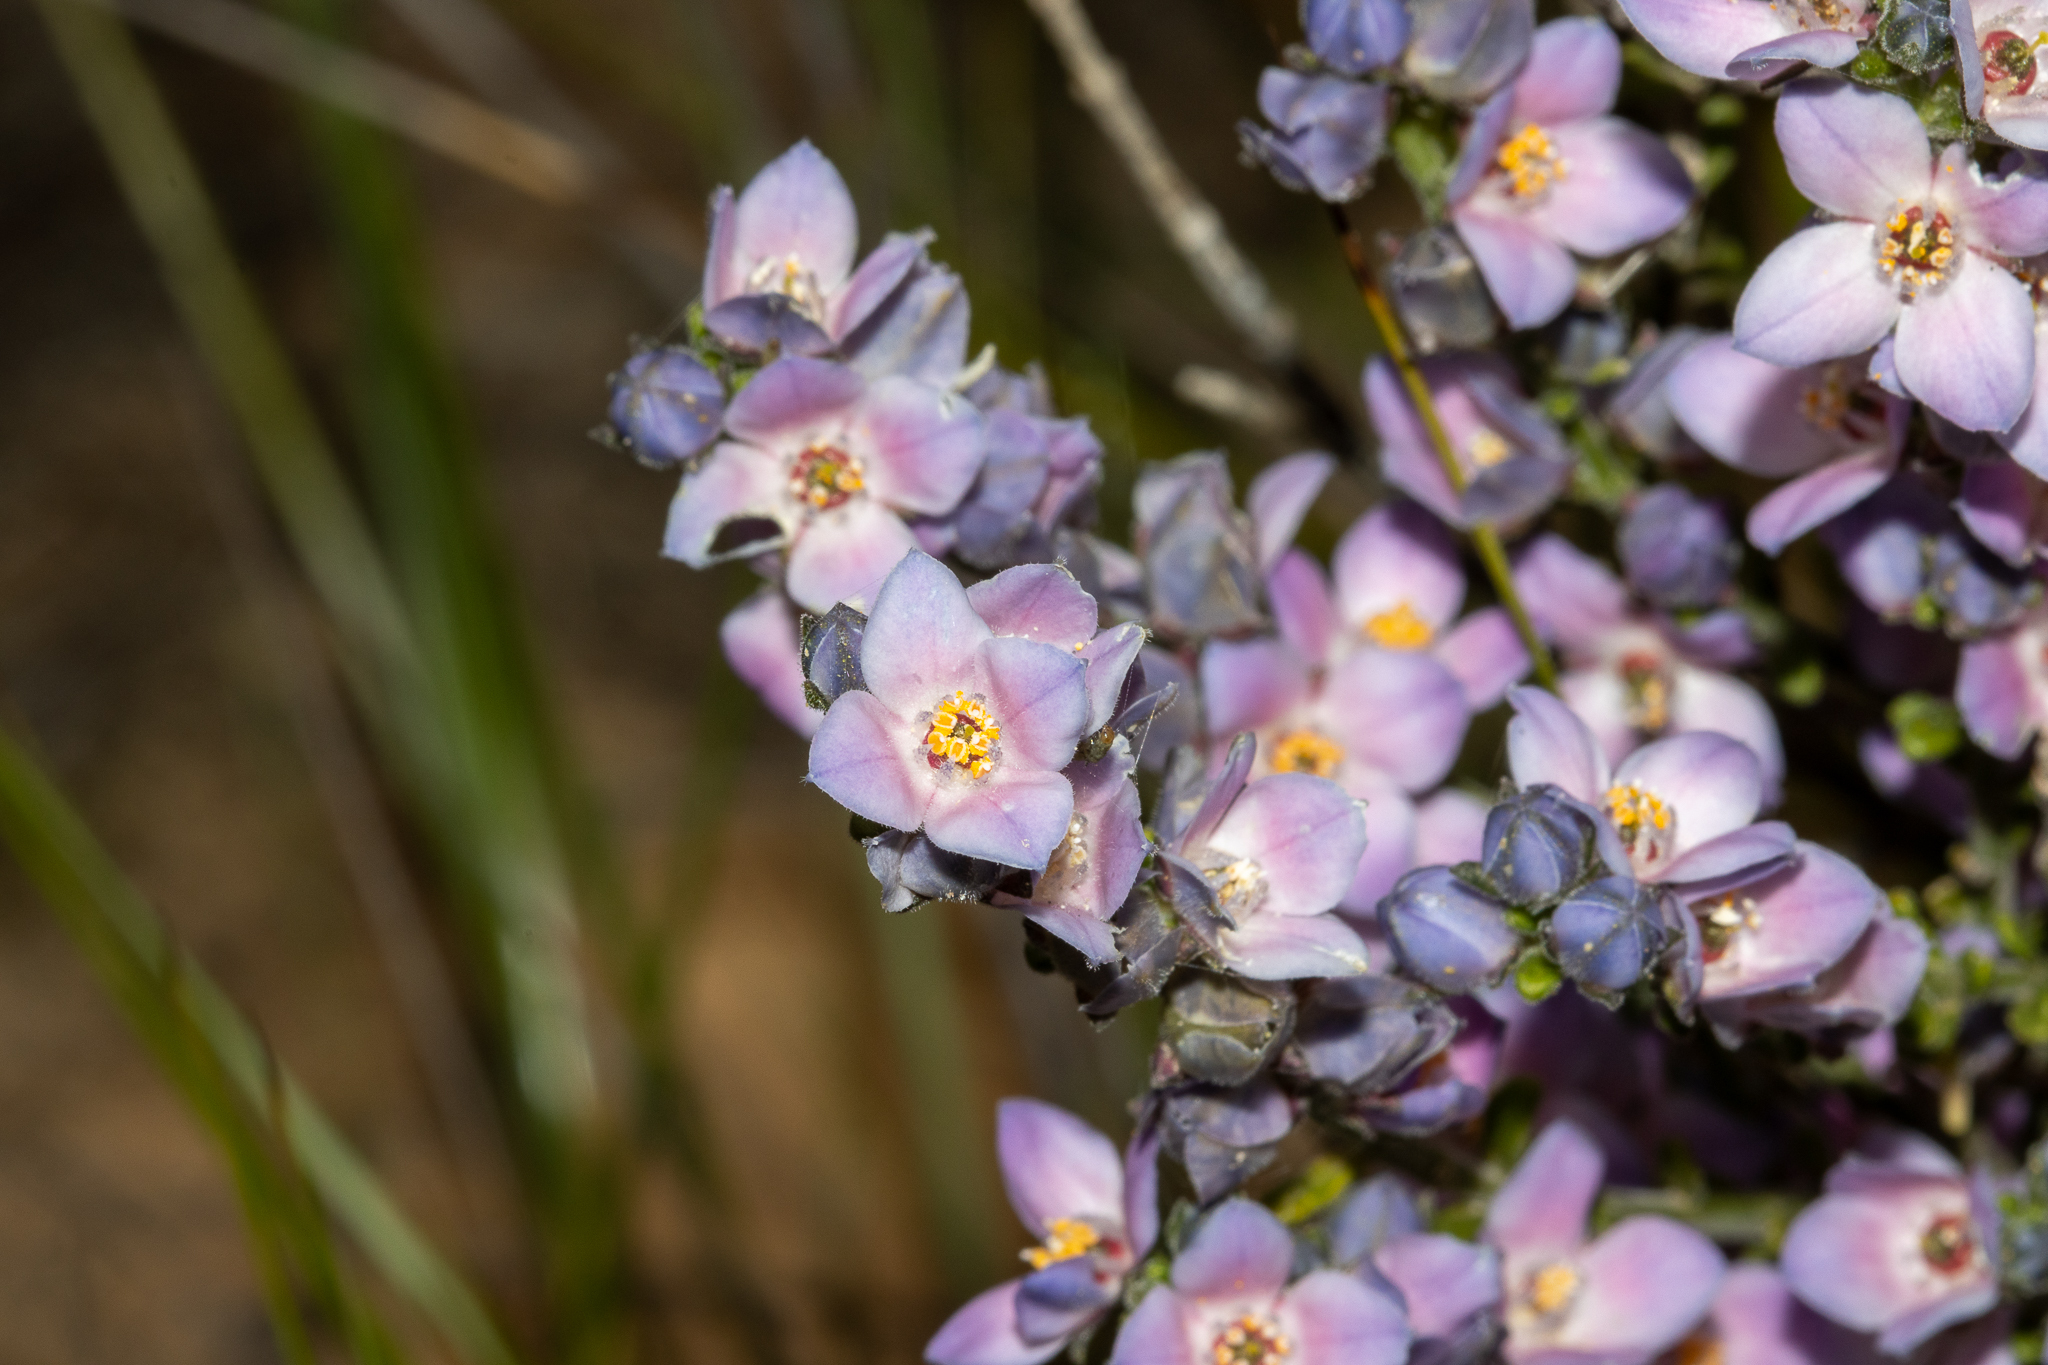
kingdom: Plantae
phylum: Tracheophyta
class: Magnoliopsida
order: Sapindales
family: Rutaceae
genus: Cyanothamnus
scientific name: Cyanothamnus coerulescens
